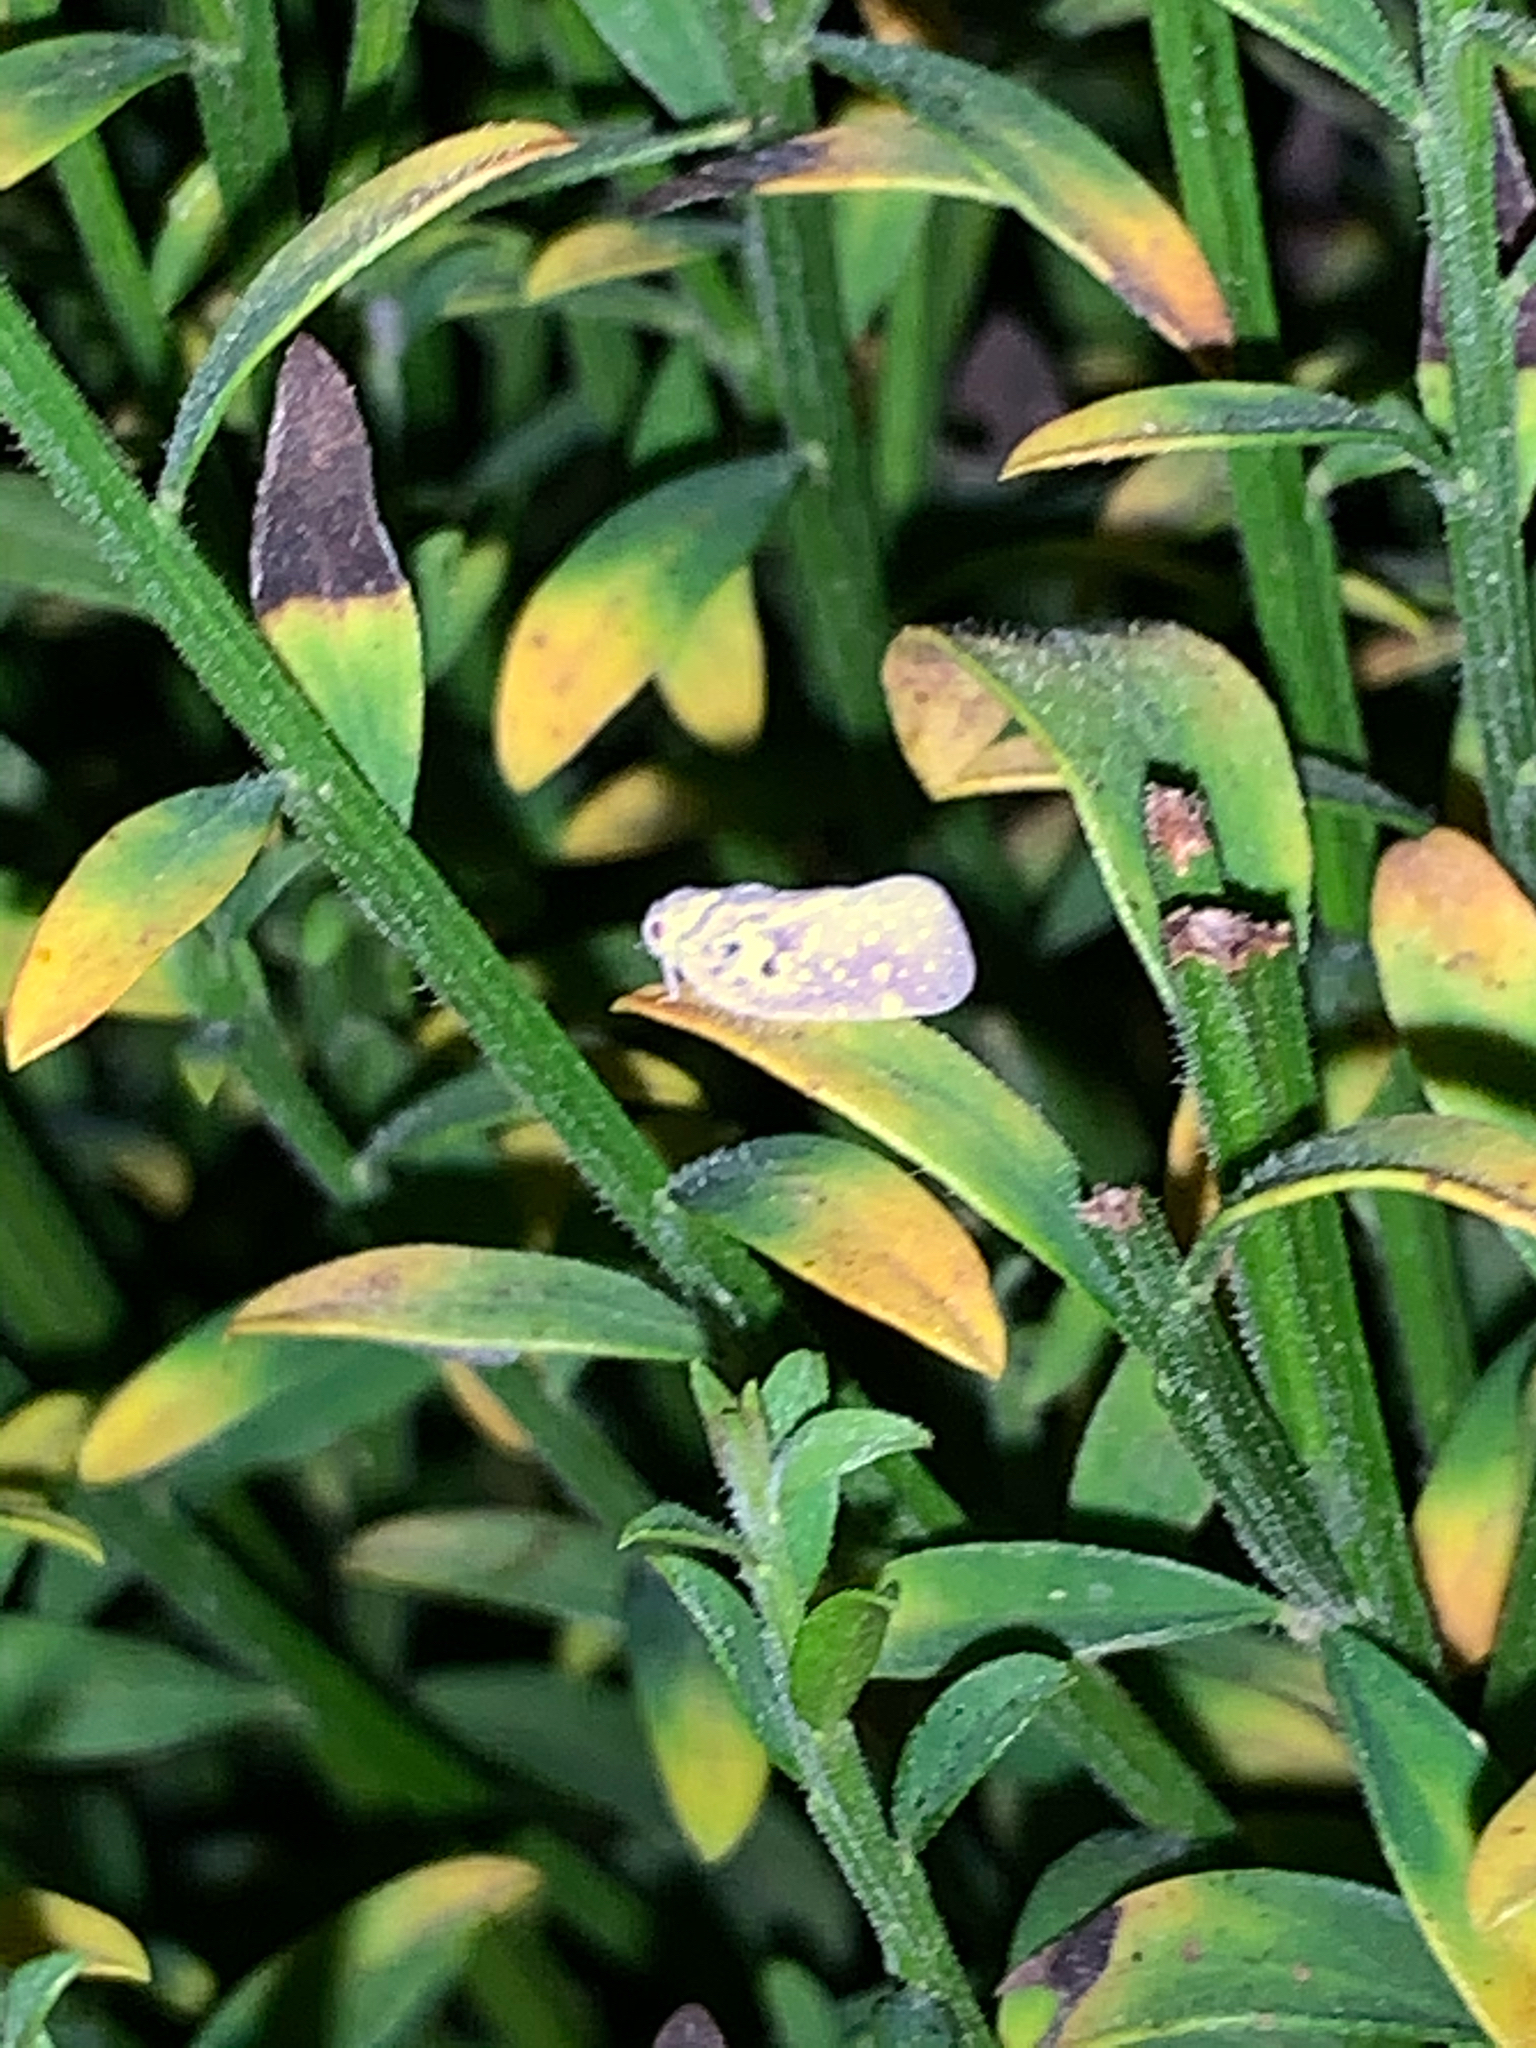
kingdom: Animalia
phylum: Arthropoda
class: Insecta
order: Hemiptera
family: Flatidae
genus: Metcalfa
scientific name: Metcalfa pruinosa
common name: Citrus flatid planthopper
